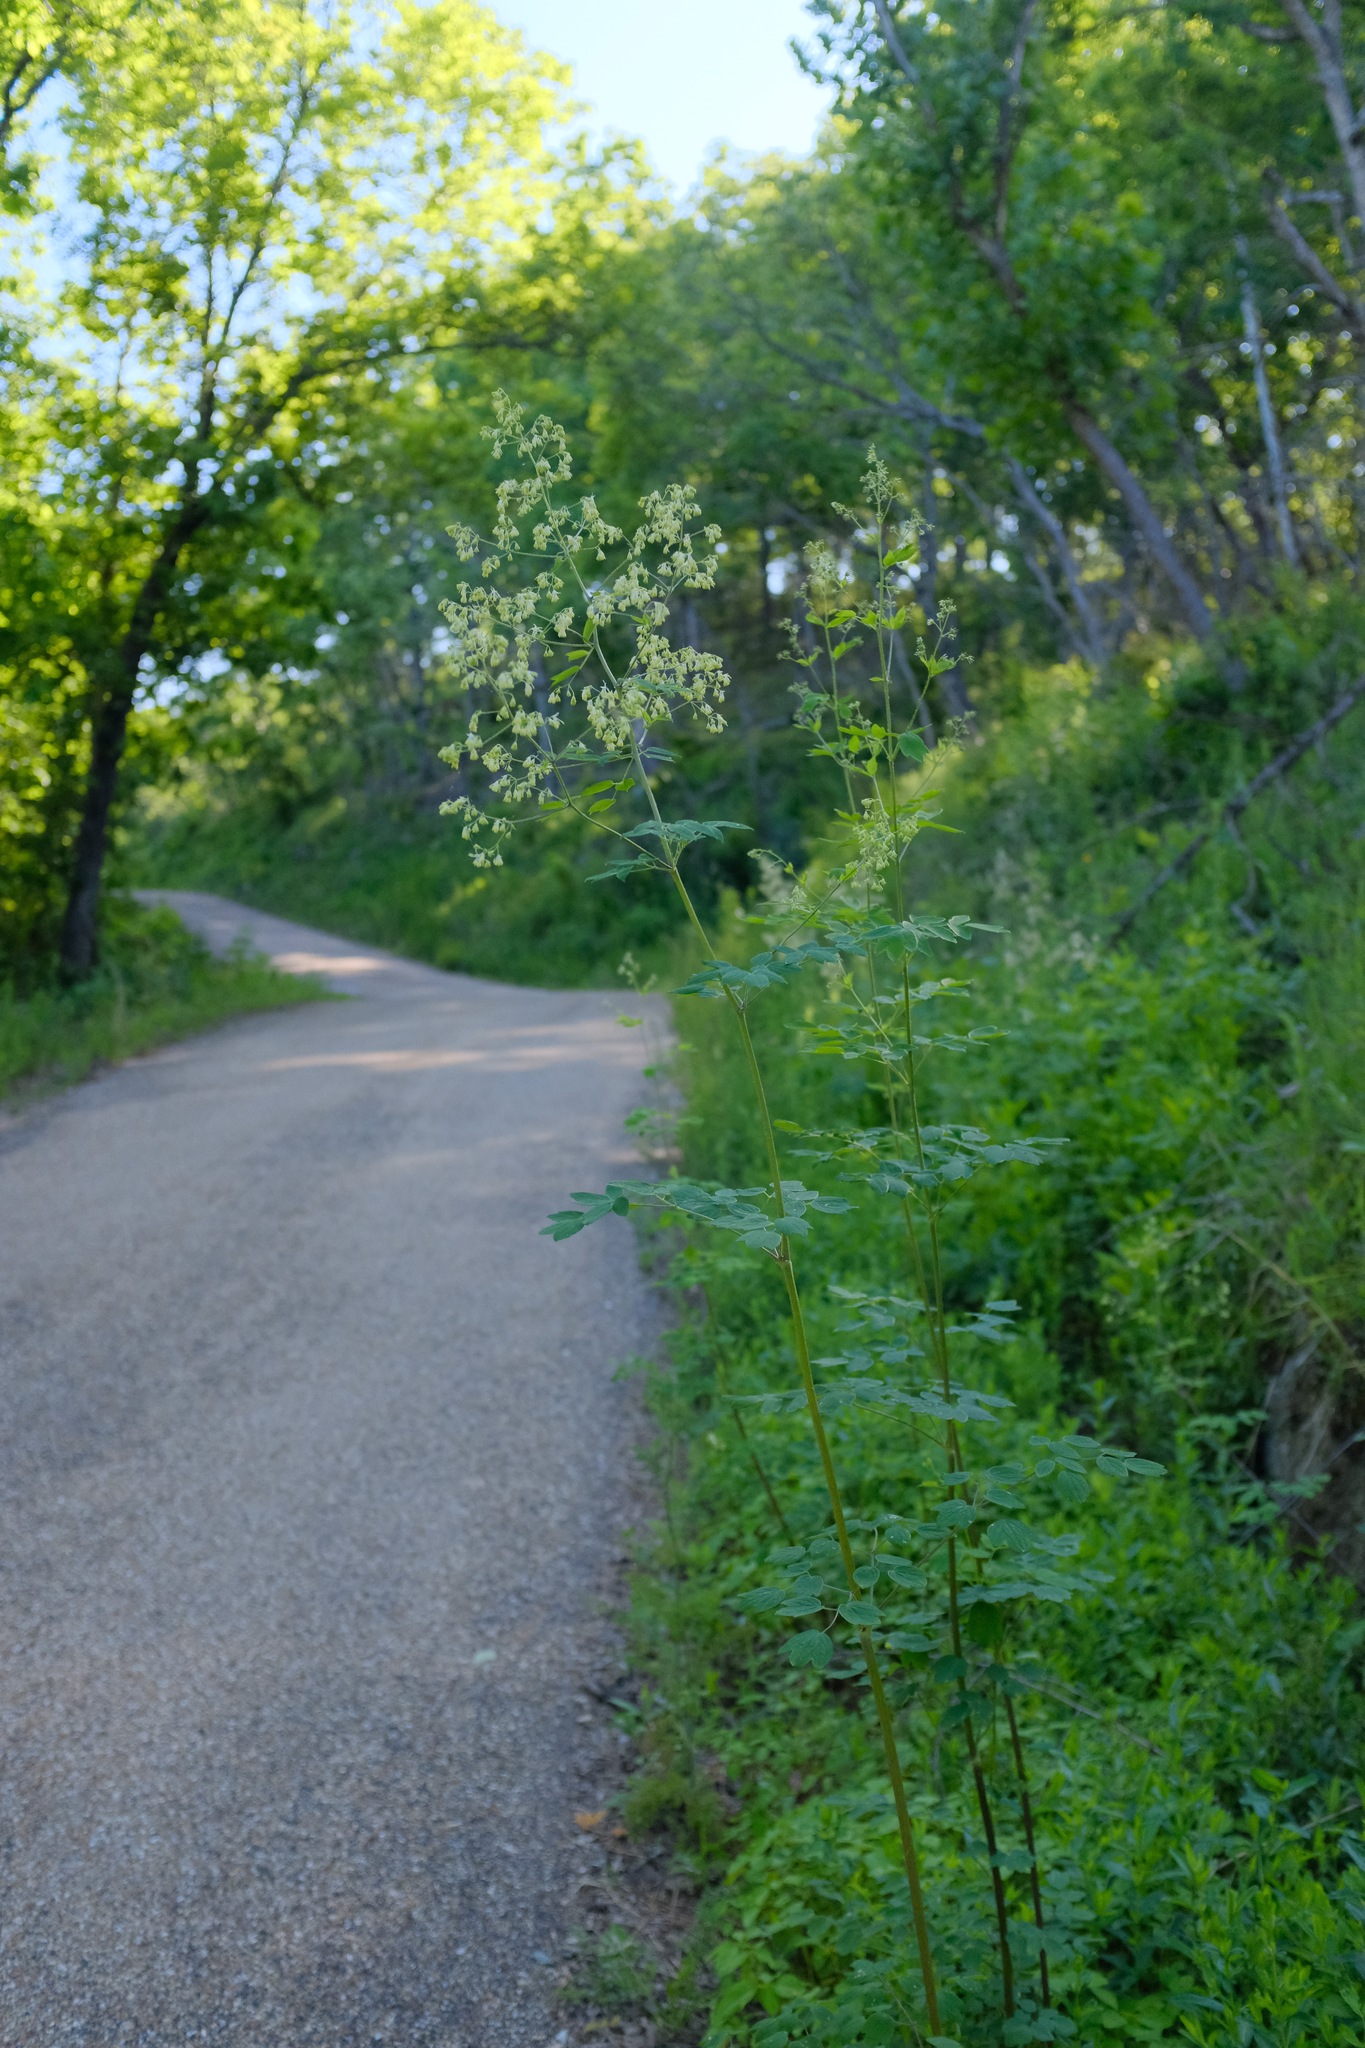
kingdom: Plantae
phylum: Tracheophyta
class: Magnoliopsida
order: Ranunculales
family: Ranunculaceae
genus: Thalictrum
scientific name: Thalictrum revolutum
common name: Waxy meadow-rue
